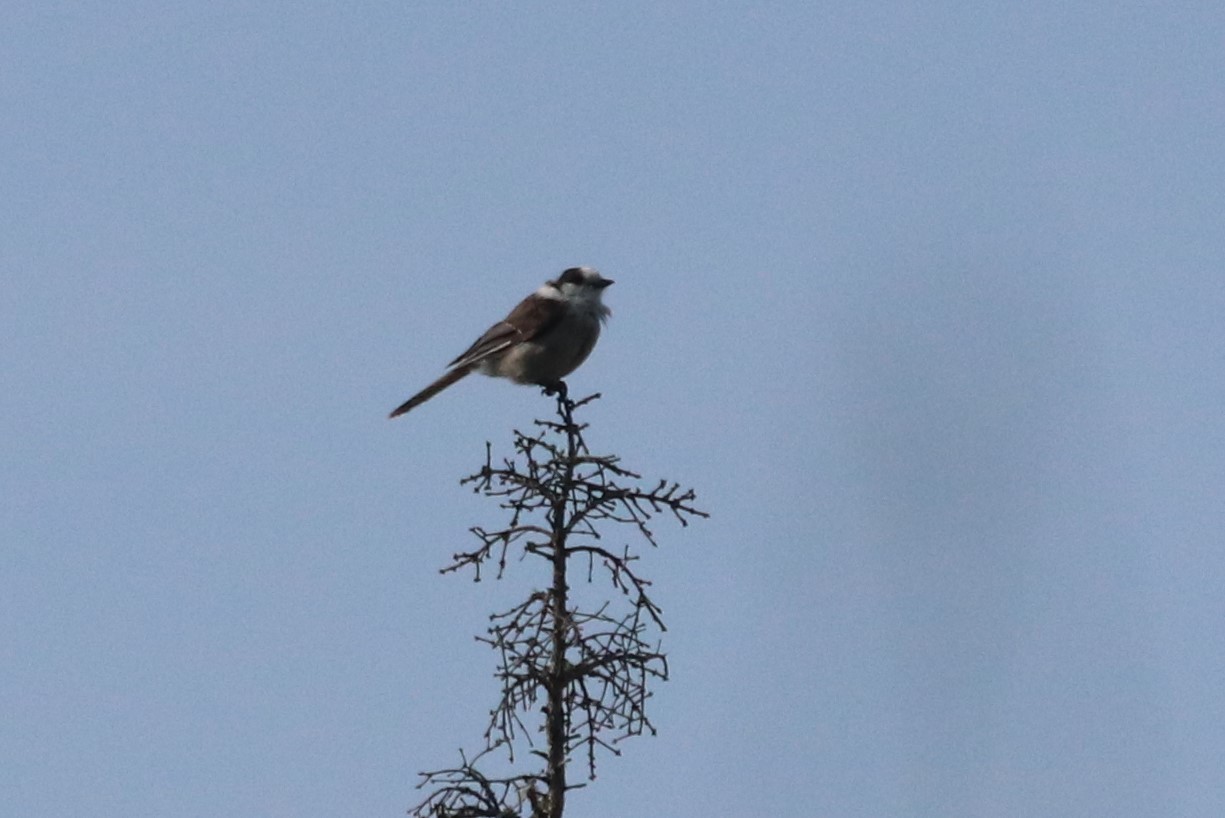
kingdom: Animalia
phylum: Chordata
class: Aves
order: Passeriformes
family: Corvidae
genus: Perisoreus
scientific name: Perisoreus canadensis
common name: Gray jay
